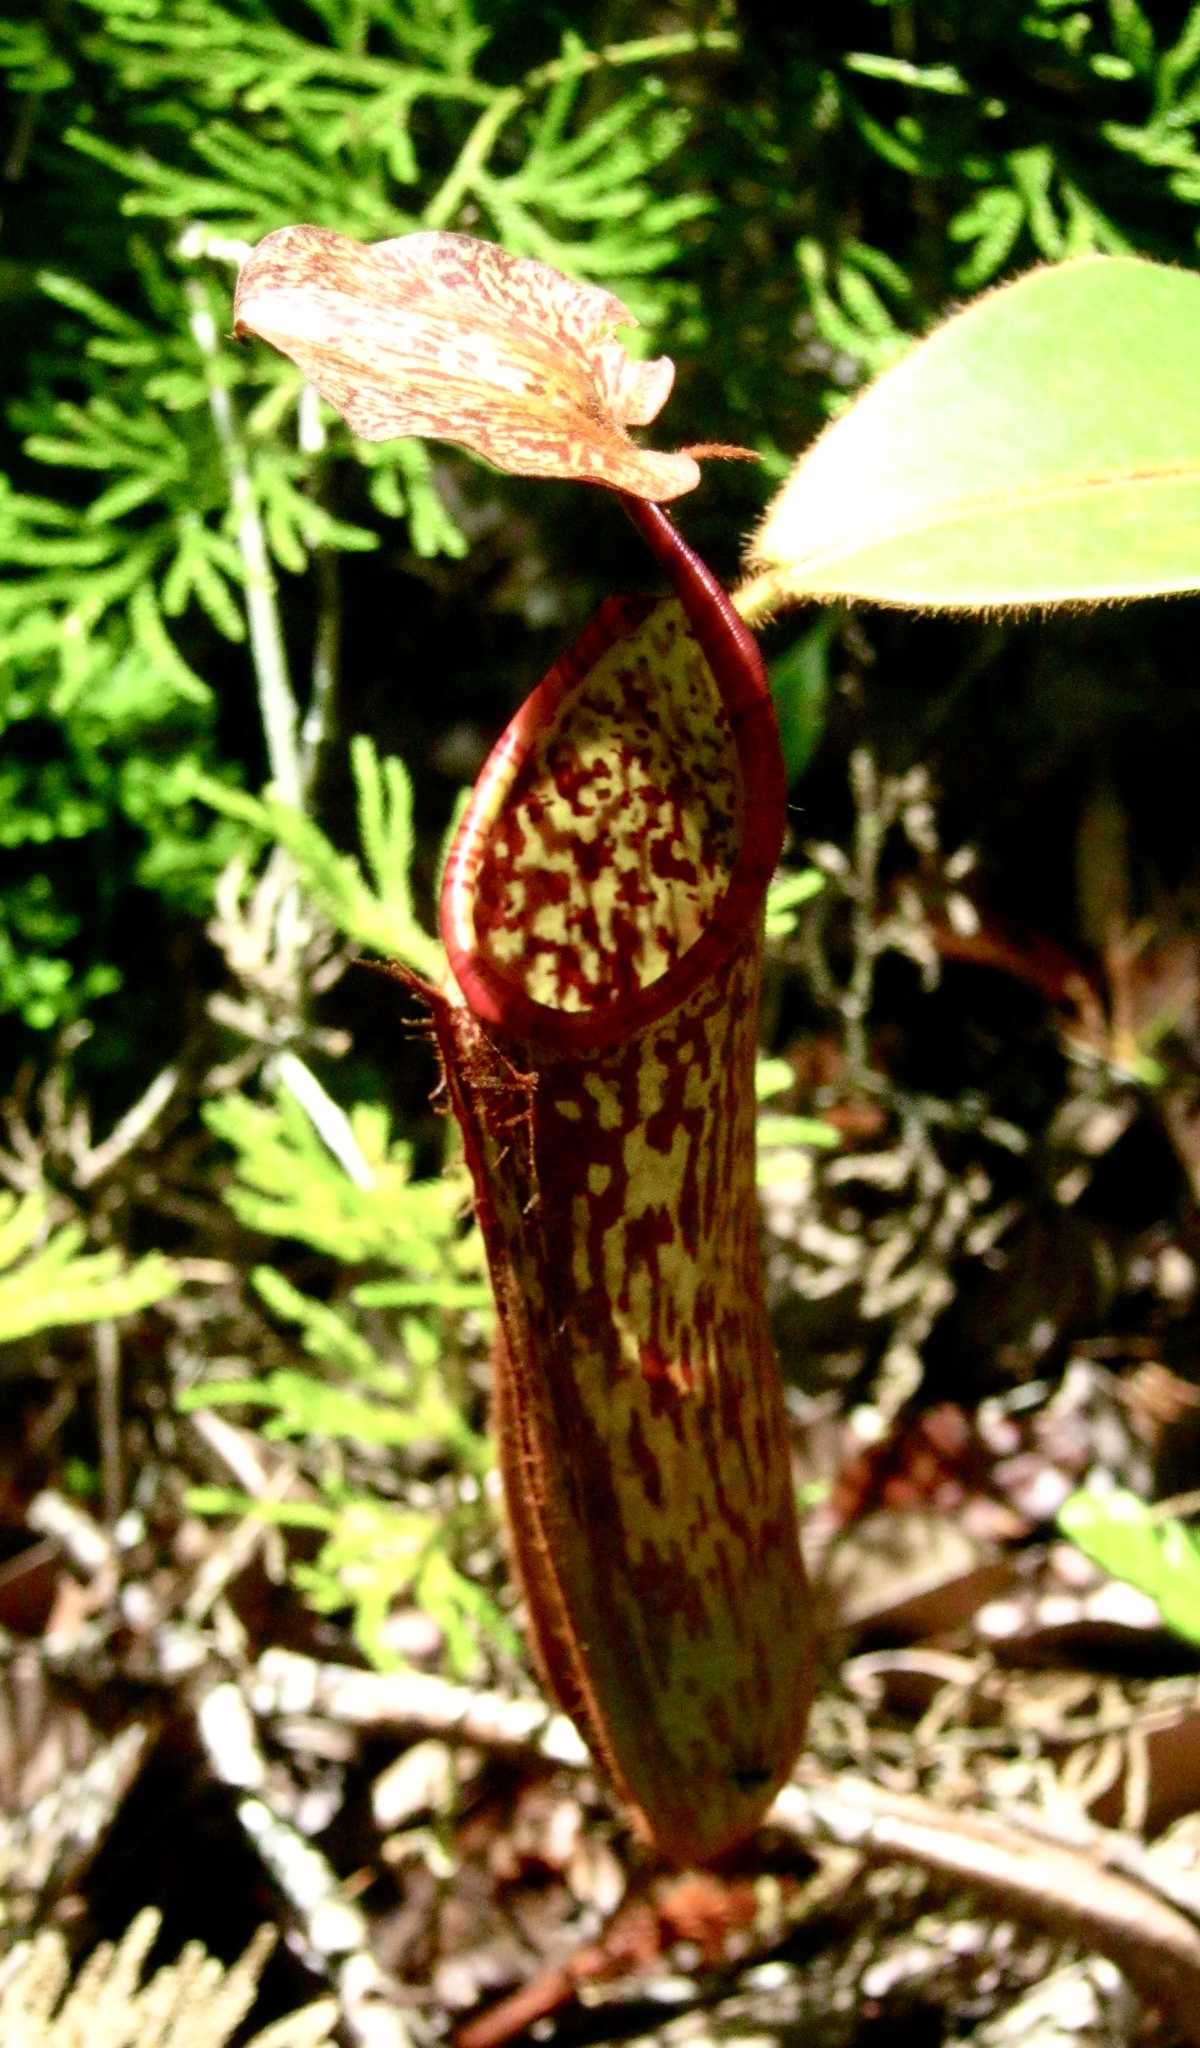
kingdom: Plantae
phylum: Tracheophyta
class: Magnoliopsida
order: Caryophyllales
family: Nepenthaceae
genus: Nepenthes
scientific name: Nepenthes stenophylla
